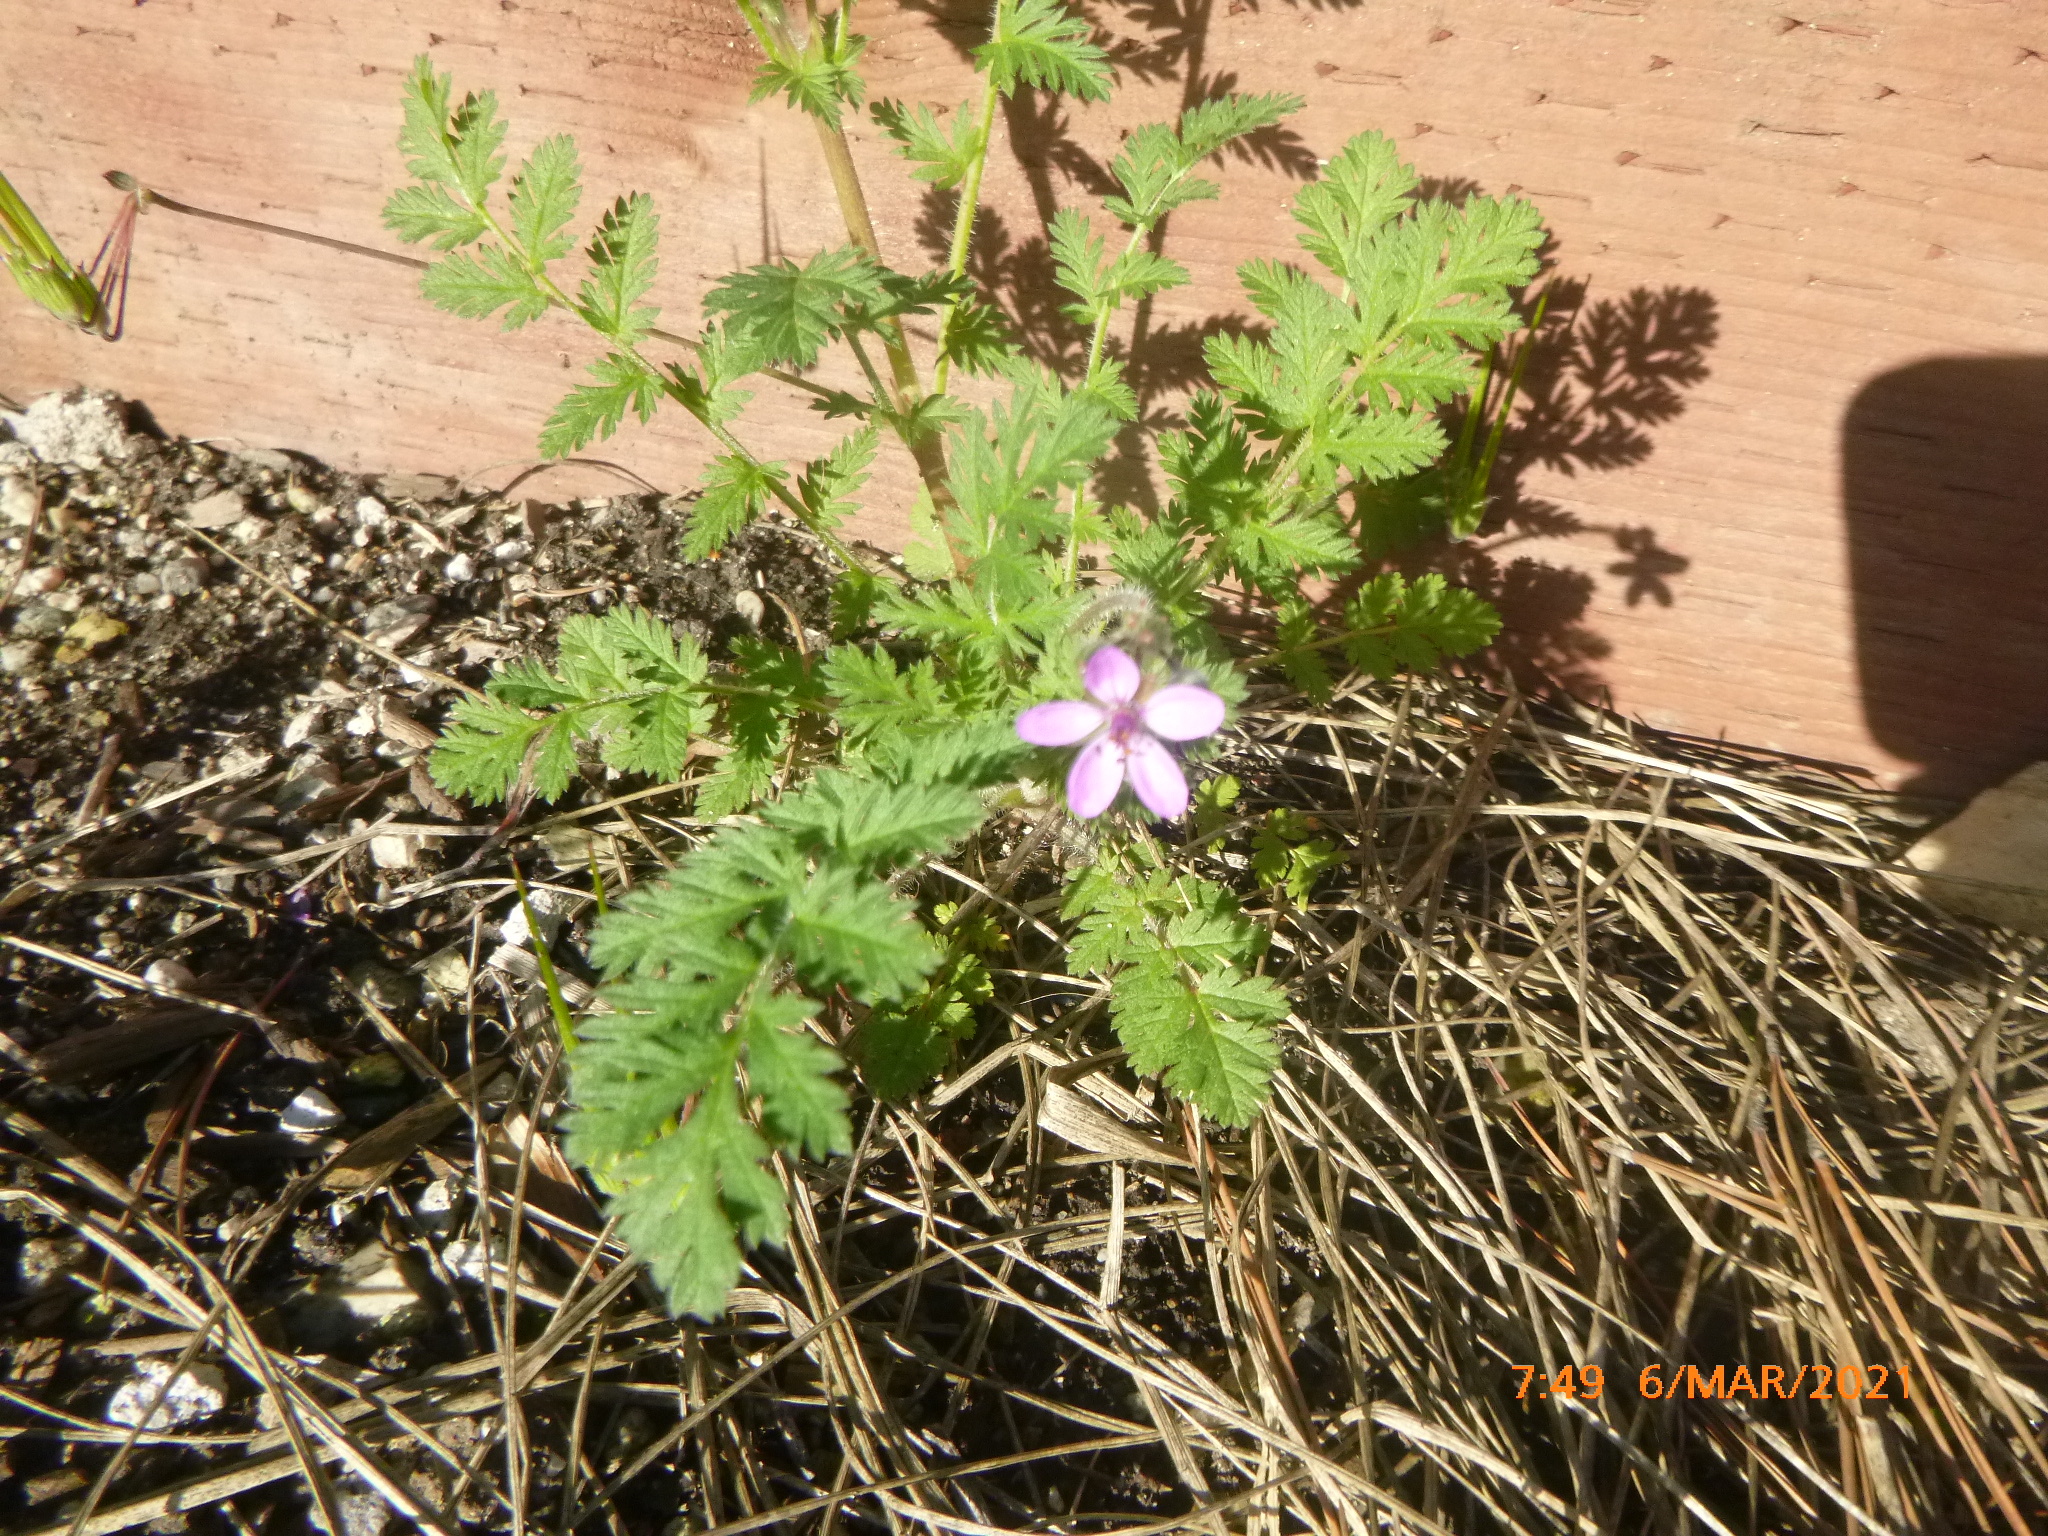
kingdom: Plantae
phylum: Tracheophyta
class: Magnoliopsida
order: Geraniales
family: Geraniaceae
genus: Erodium
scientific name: Erodium cicutarium
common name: Common stork's-bill
